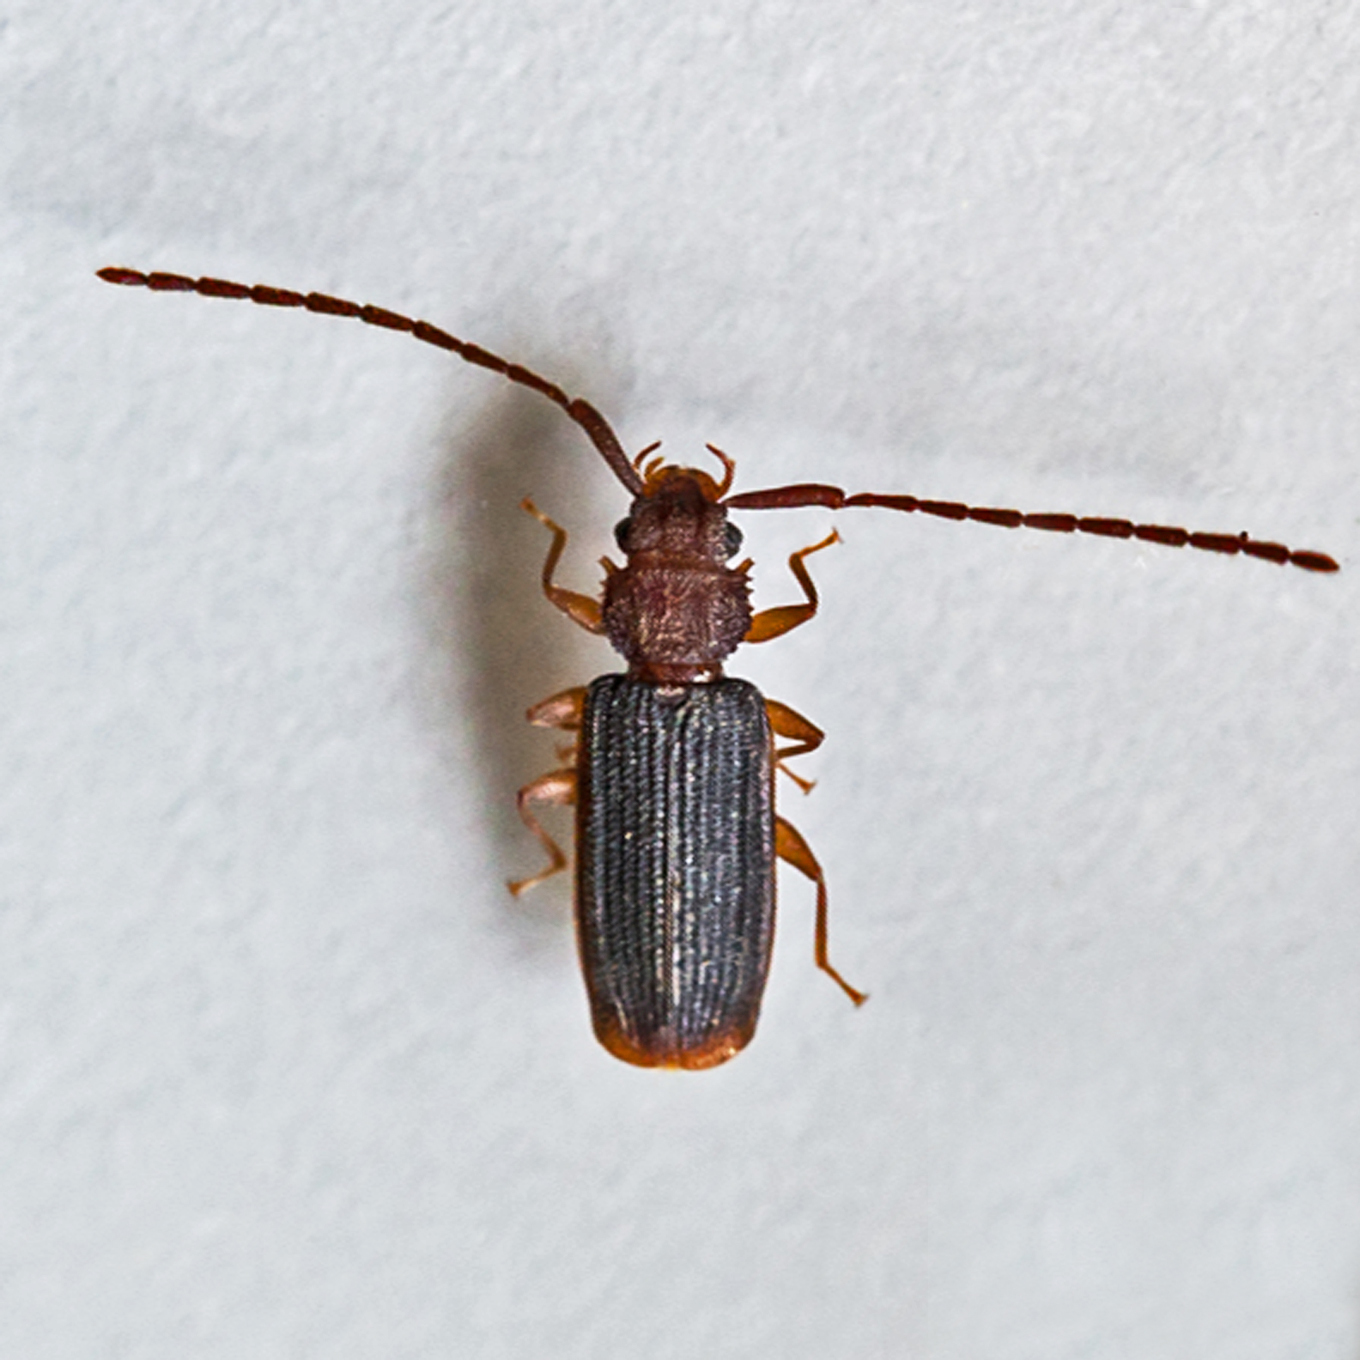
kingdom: Animalia
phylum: Arthropoda
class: Insecta
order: Coleoptera
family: Silvanidae
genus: Uleiota
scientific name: Uleiota dubia
